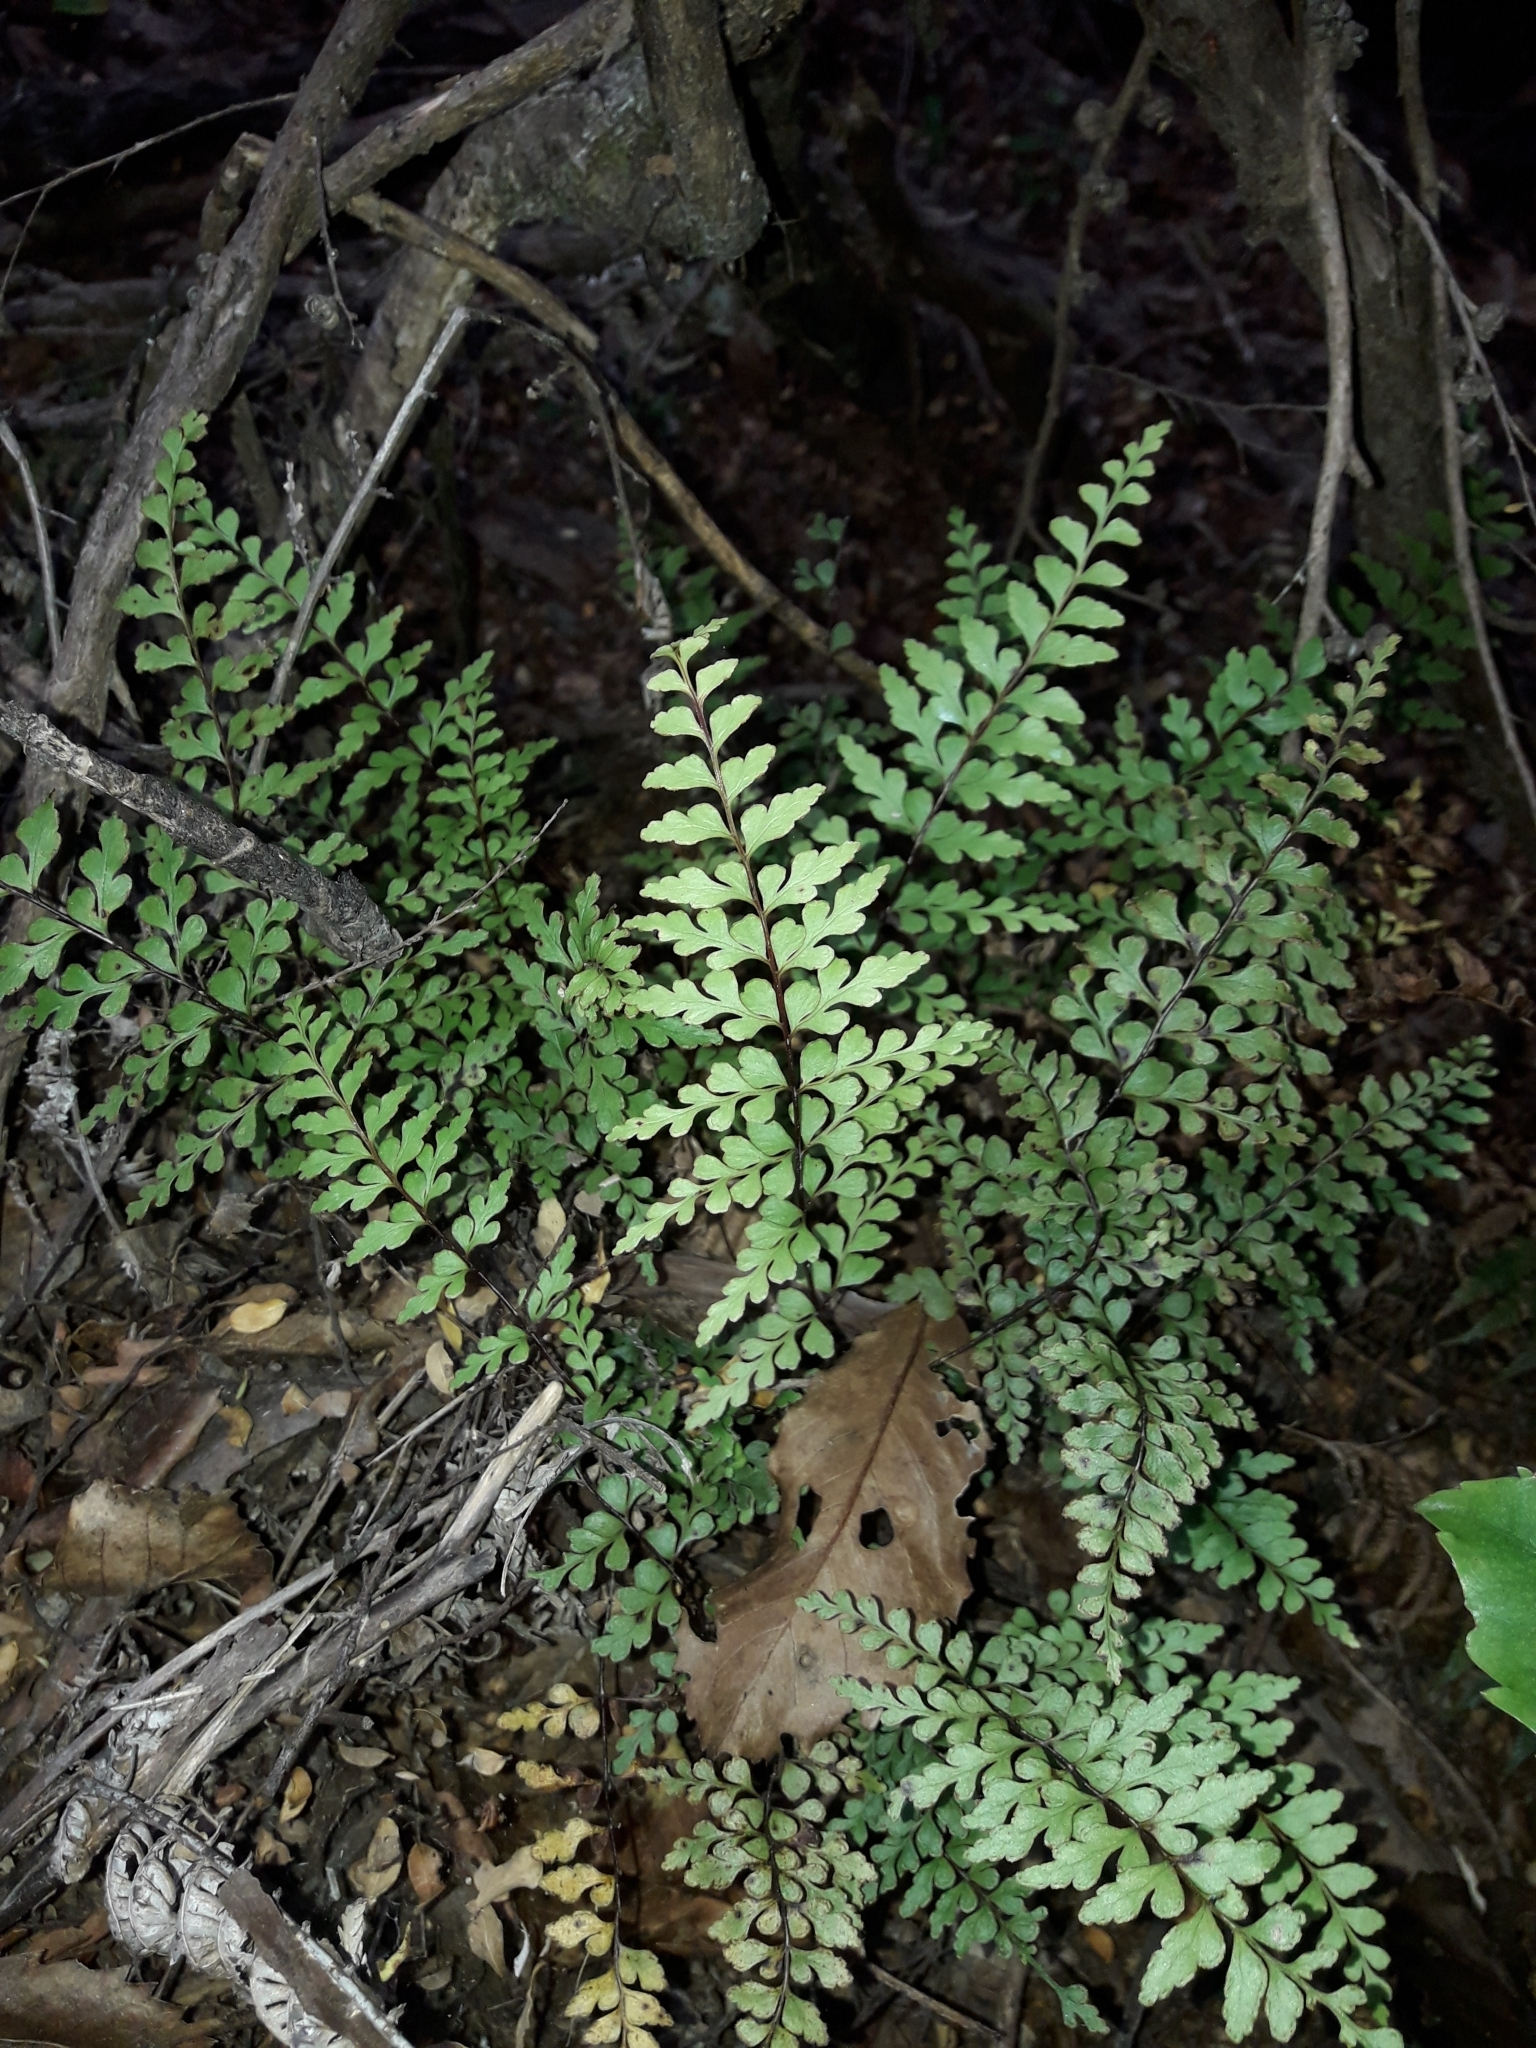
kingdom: Plantae
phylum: Tracheophyta
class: Polypodiopsida
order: Polypodiales
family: Lindsaeaceae
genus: Lindsaea
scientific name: Lindsaea trichomanoides
